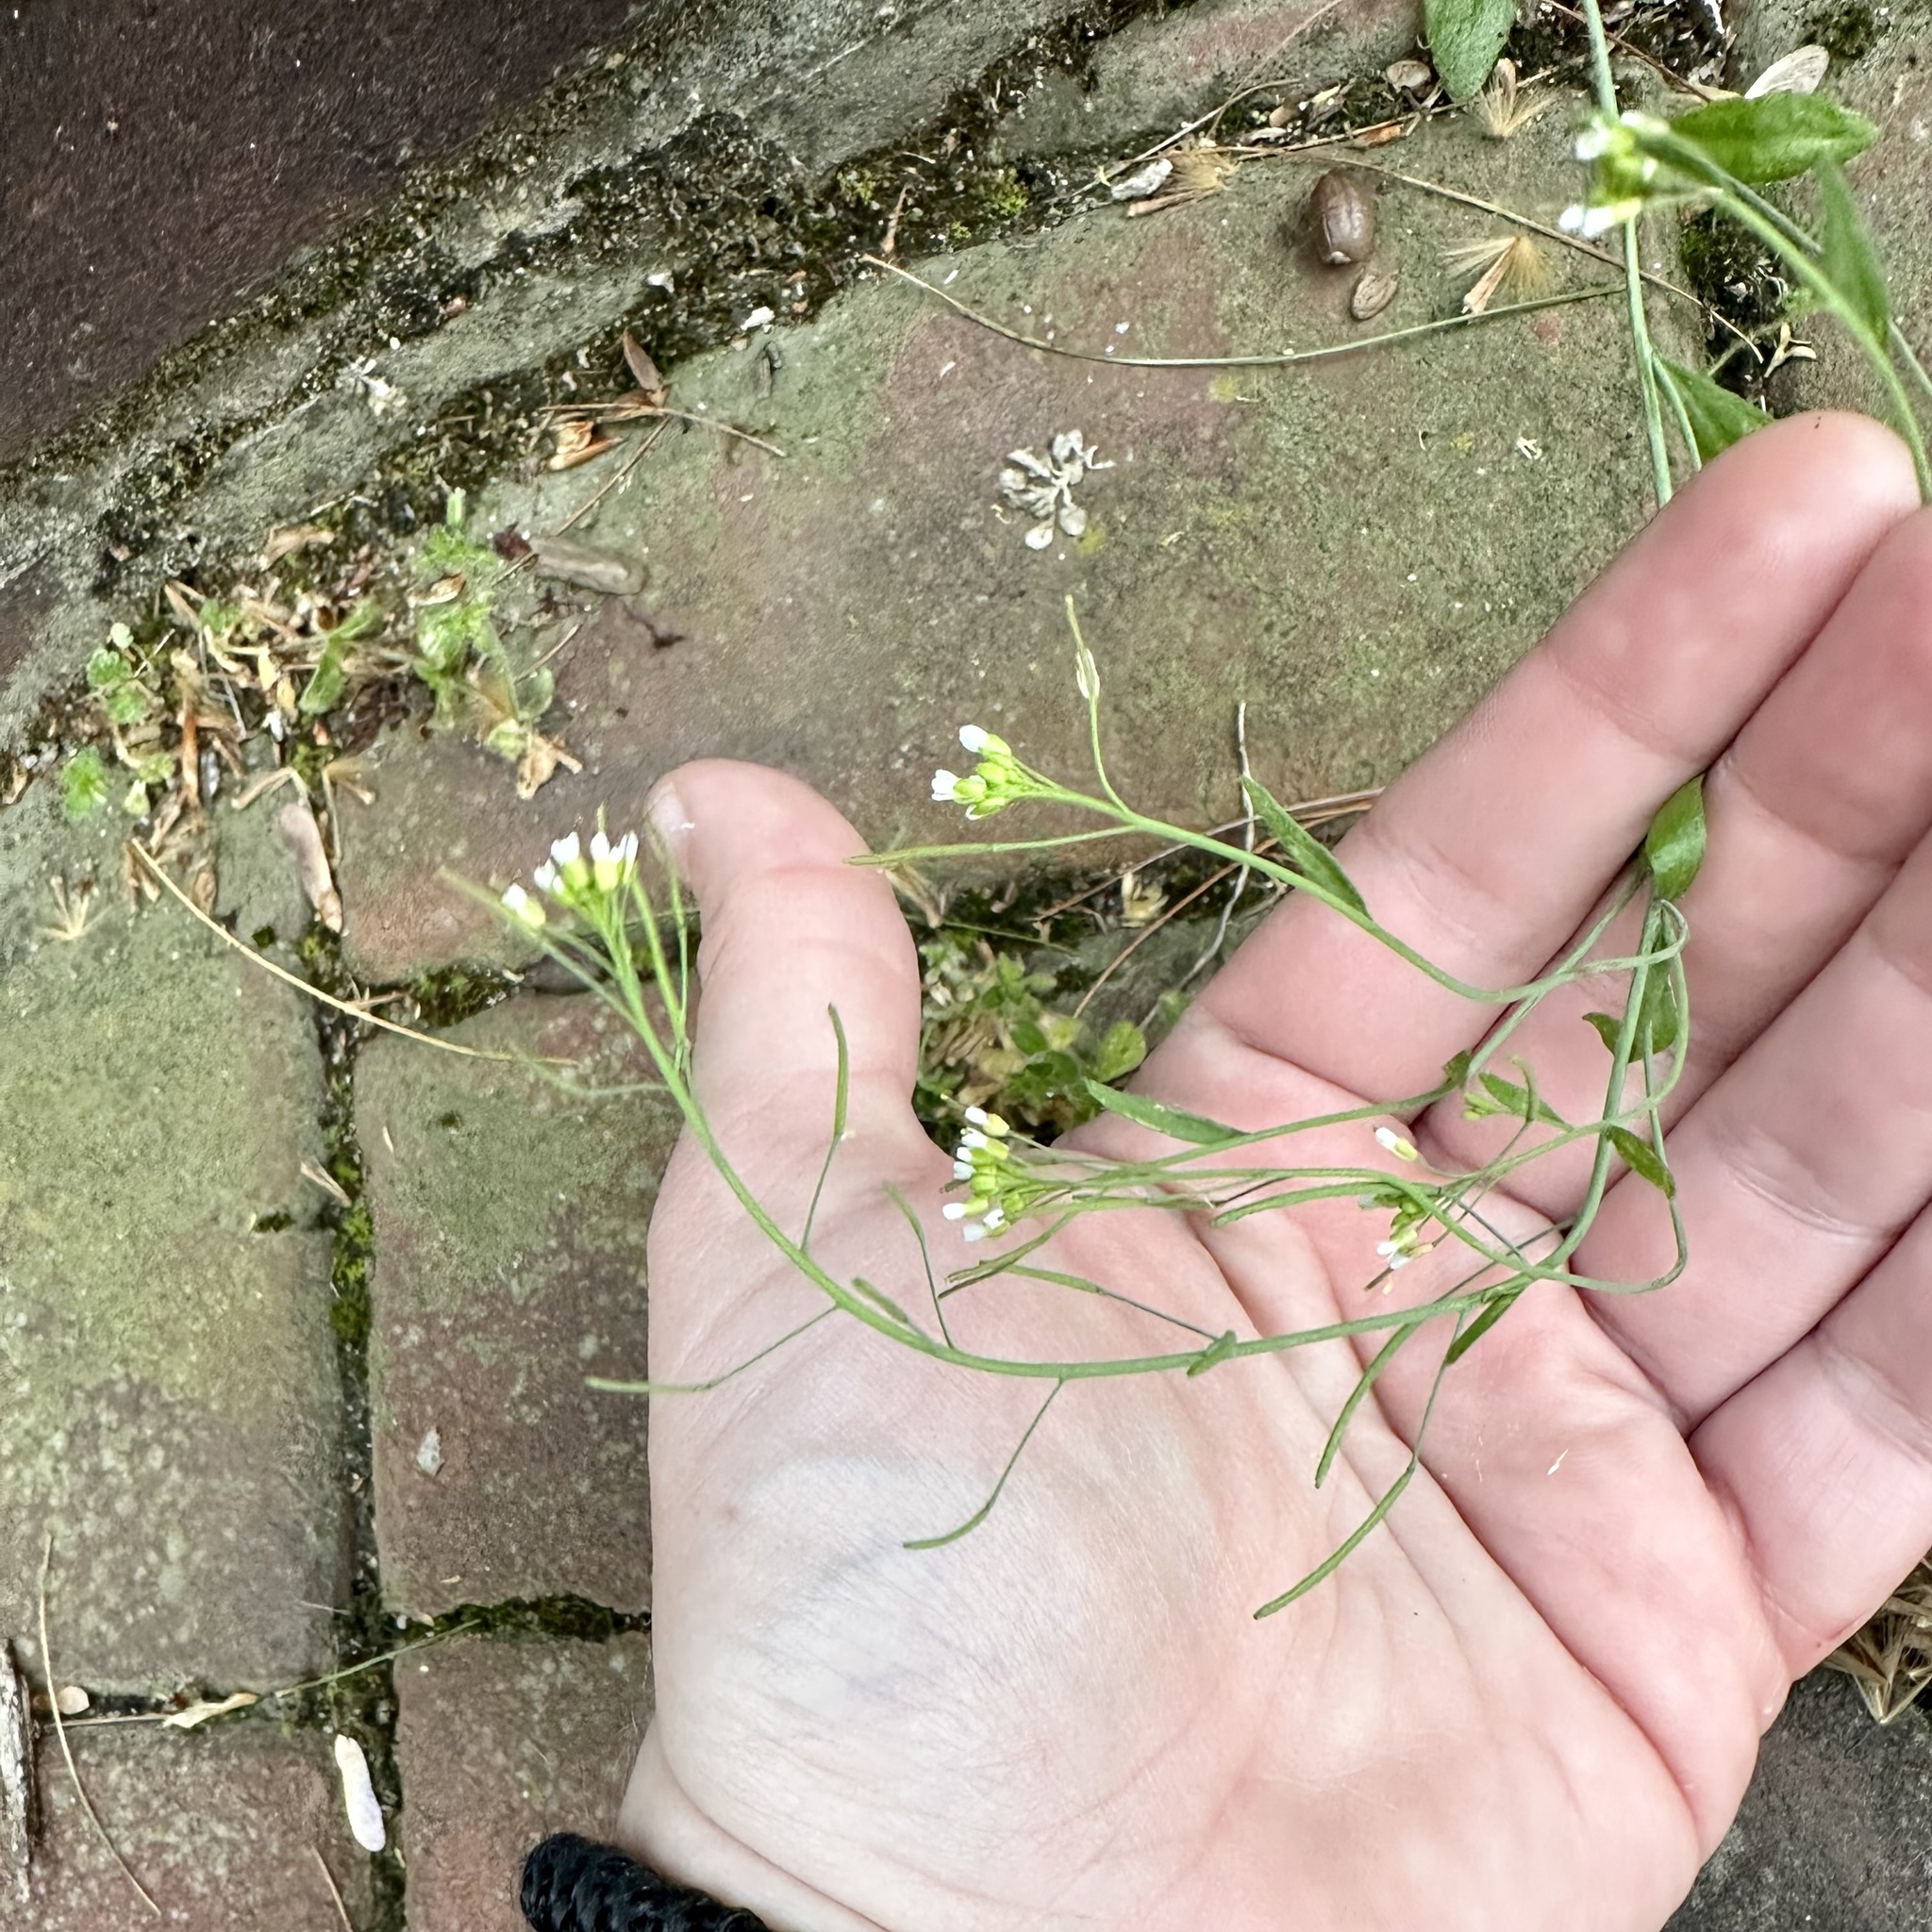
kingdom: Plantae
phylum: Tracheophyta
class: Magnoliopsida
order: Brassicales
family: Brassicaceae
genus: Arabidopsis
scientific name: Arabidopsis thaliana
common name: Thale cress
